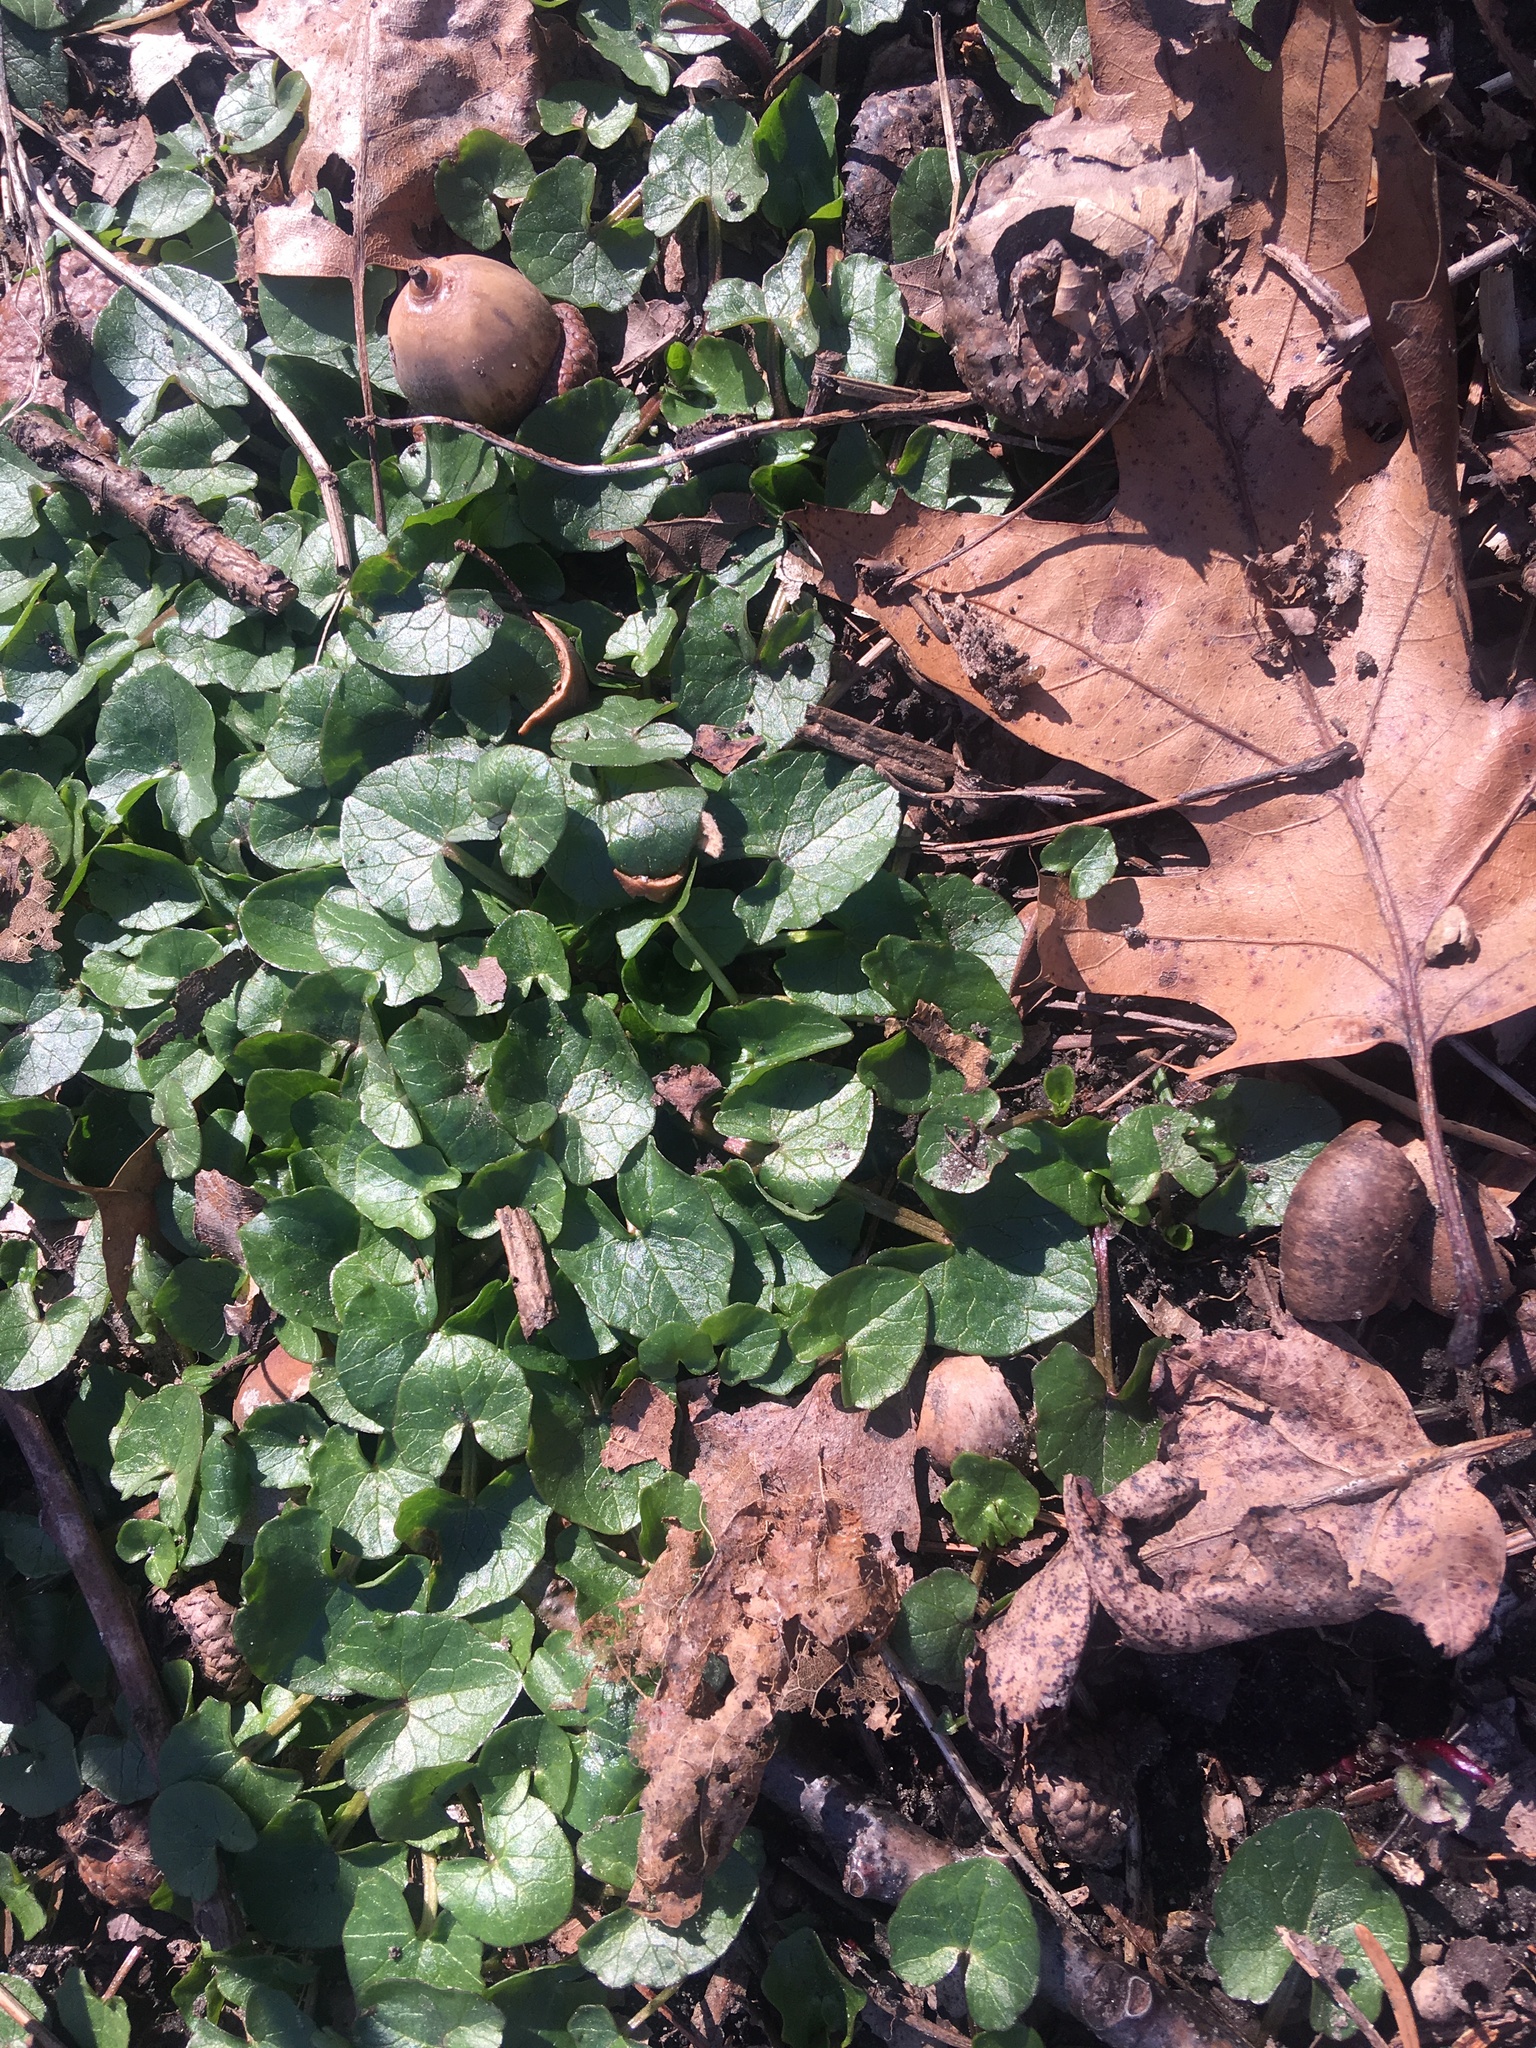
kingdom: Plantae
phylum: Tracheophyta
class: Magnoliopsida
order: Ranunculales
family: Ranunculaceae
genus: Ficaria
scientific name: Ficaria verna
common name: Lesser celandine
